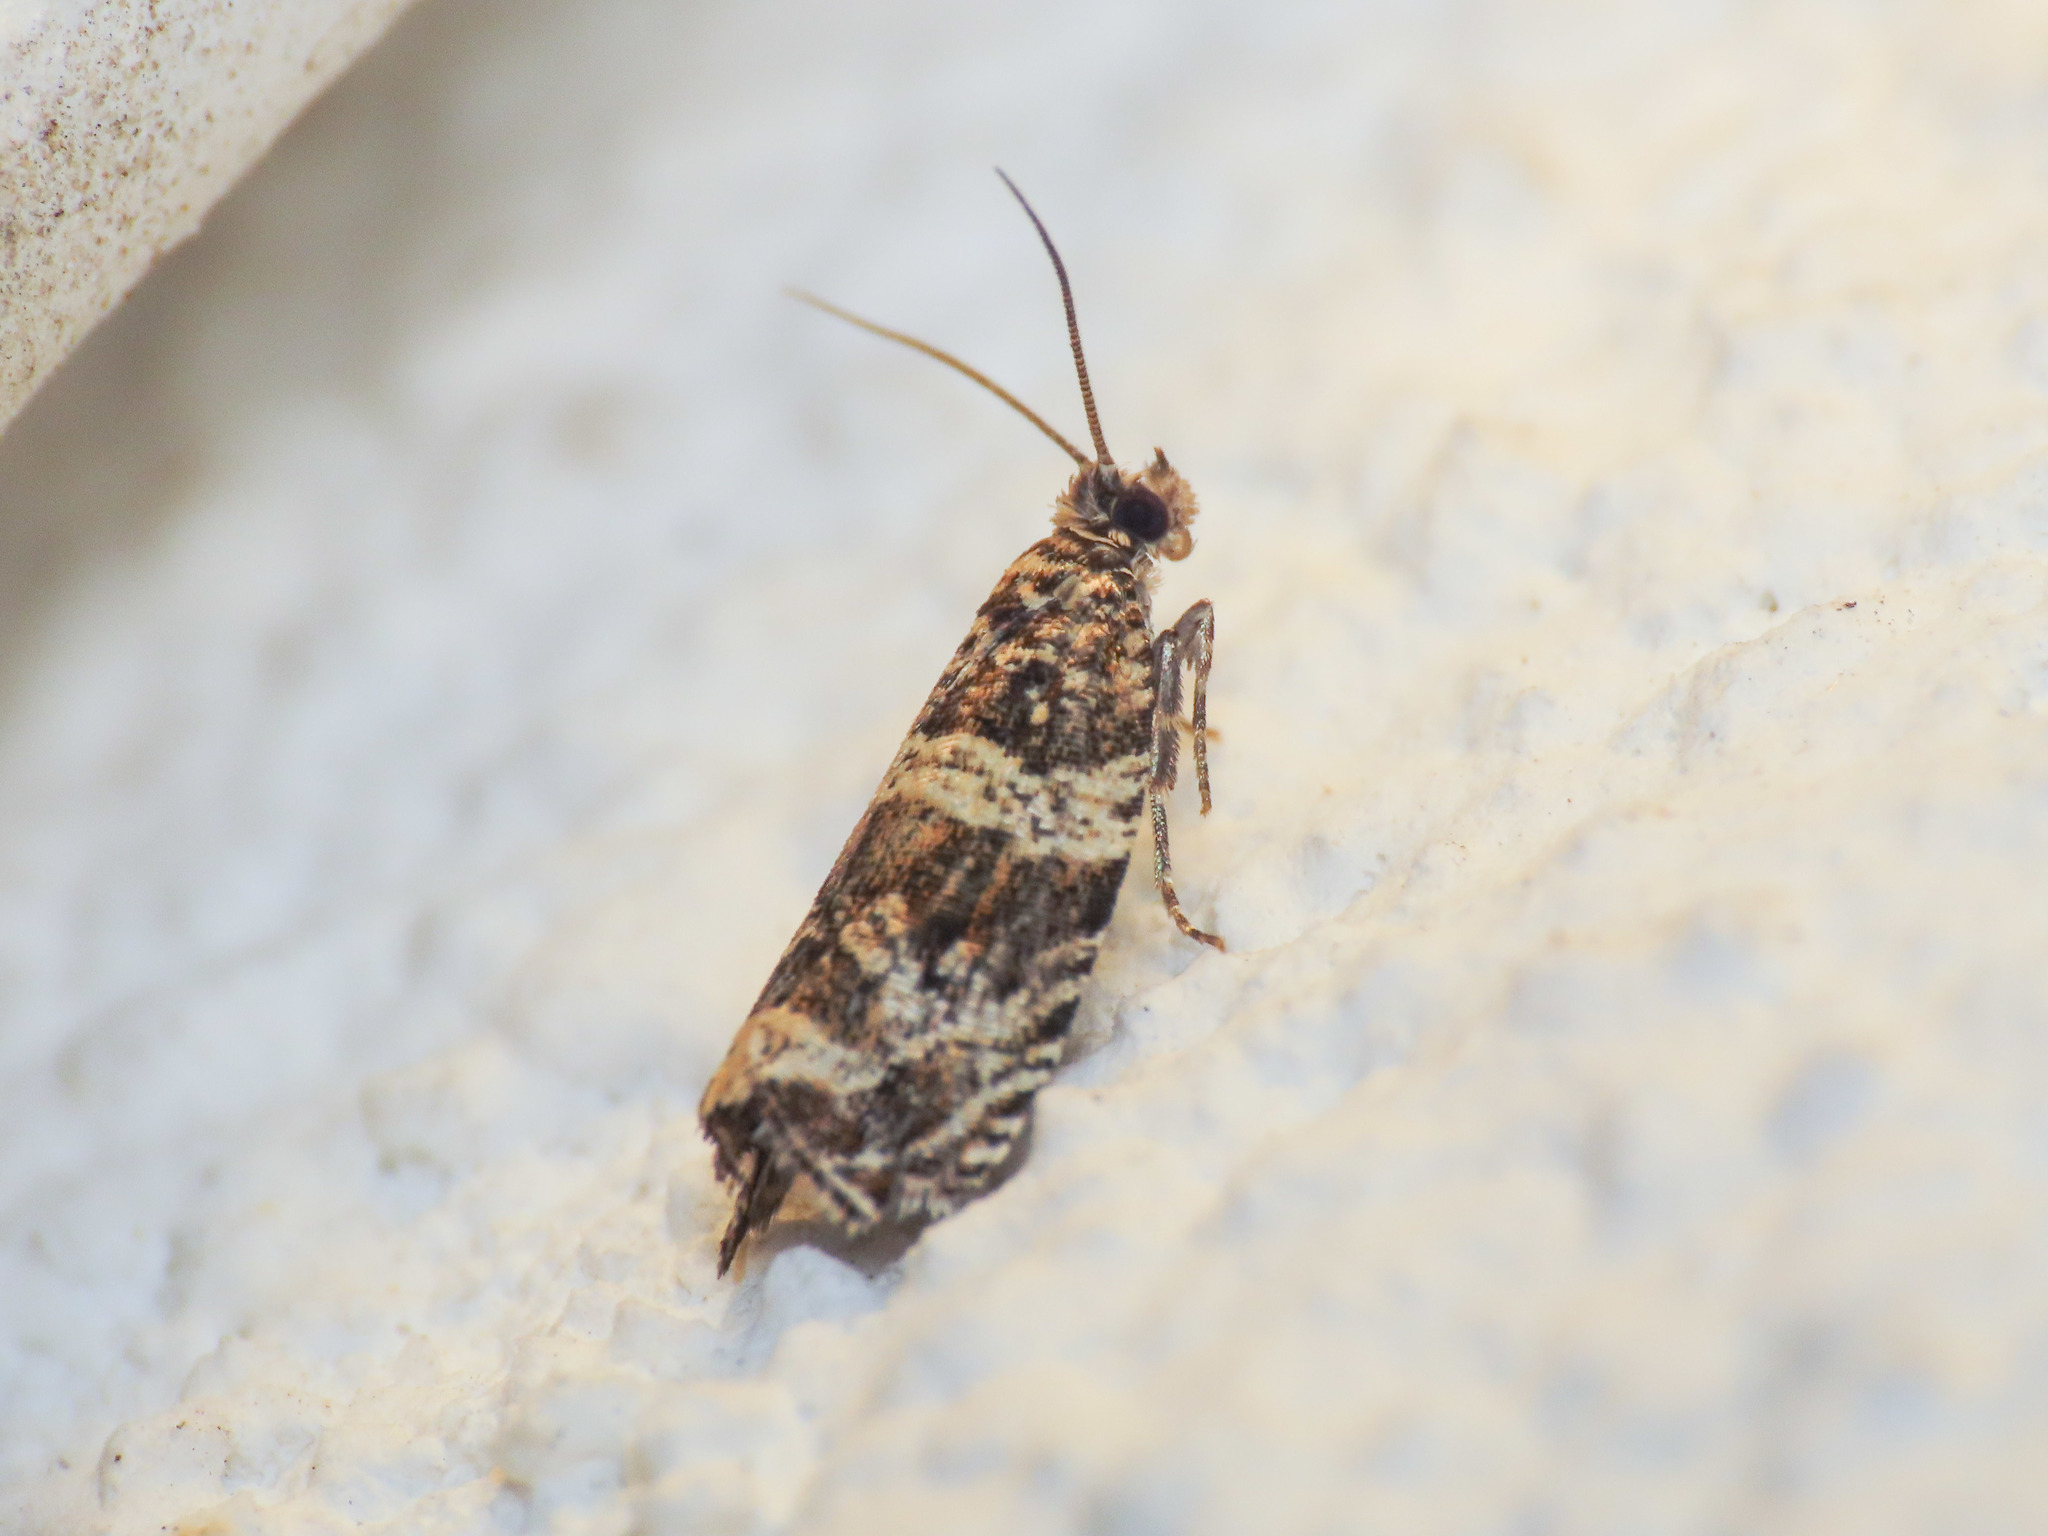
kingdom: Animalia
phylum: Arthropoda
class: Insecta
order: Lepidoptera
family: Tortricidae
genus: Celypha
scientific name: Celypha flavipalpana
